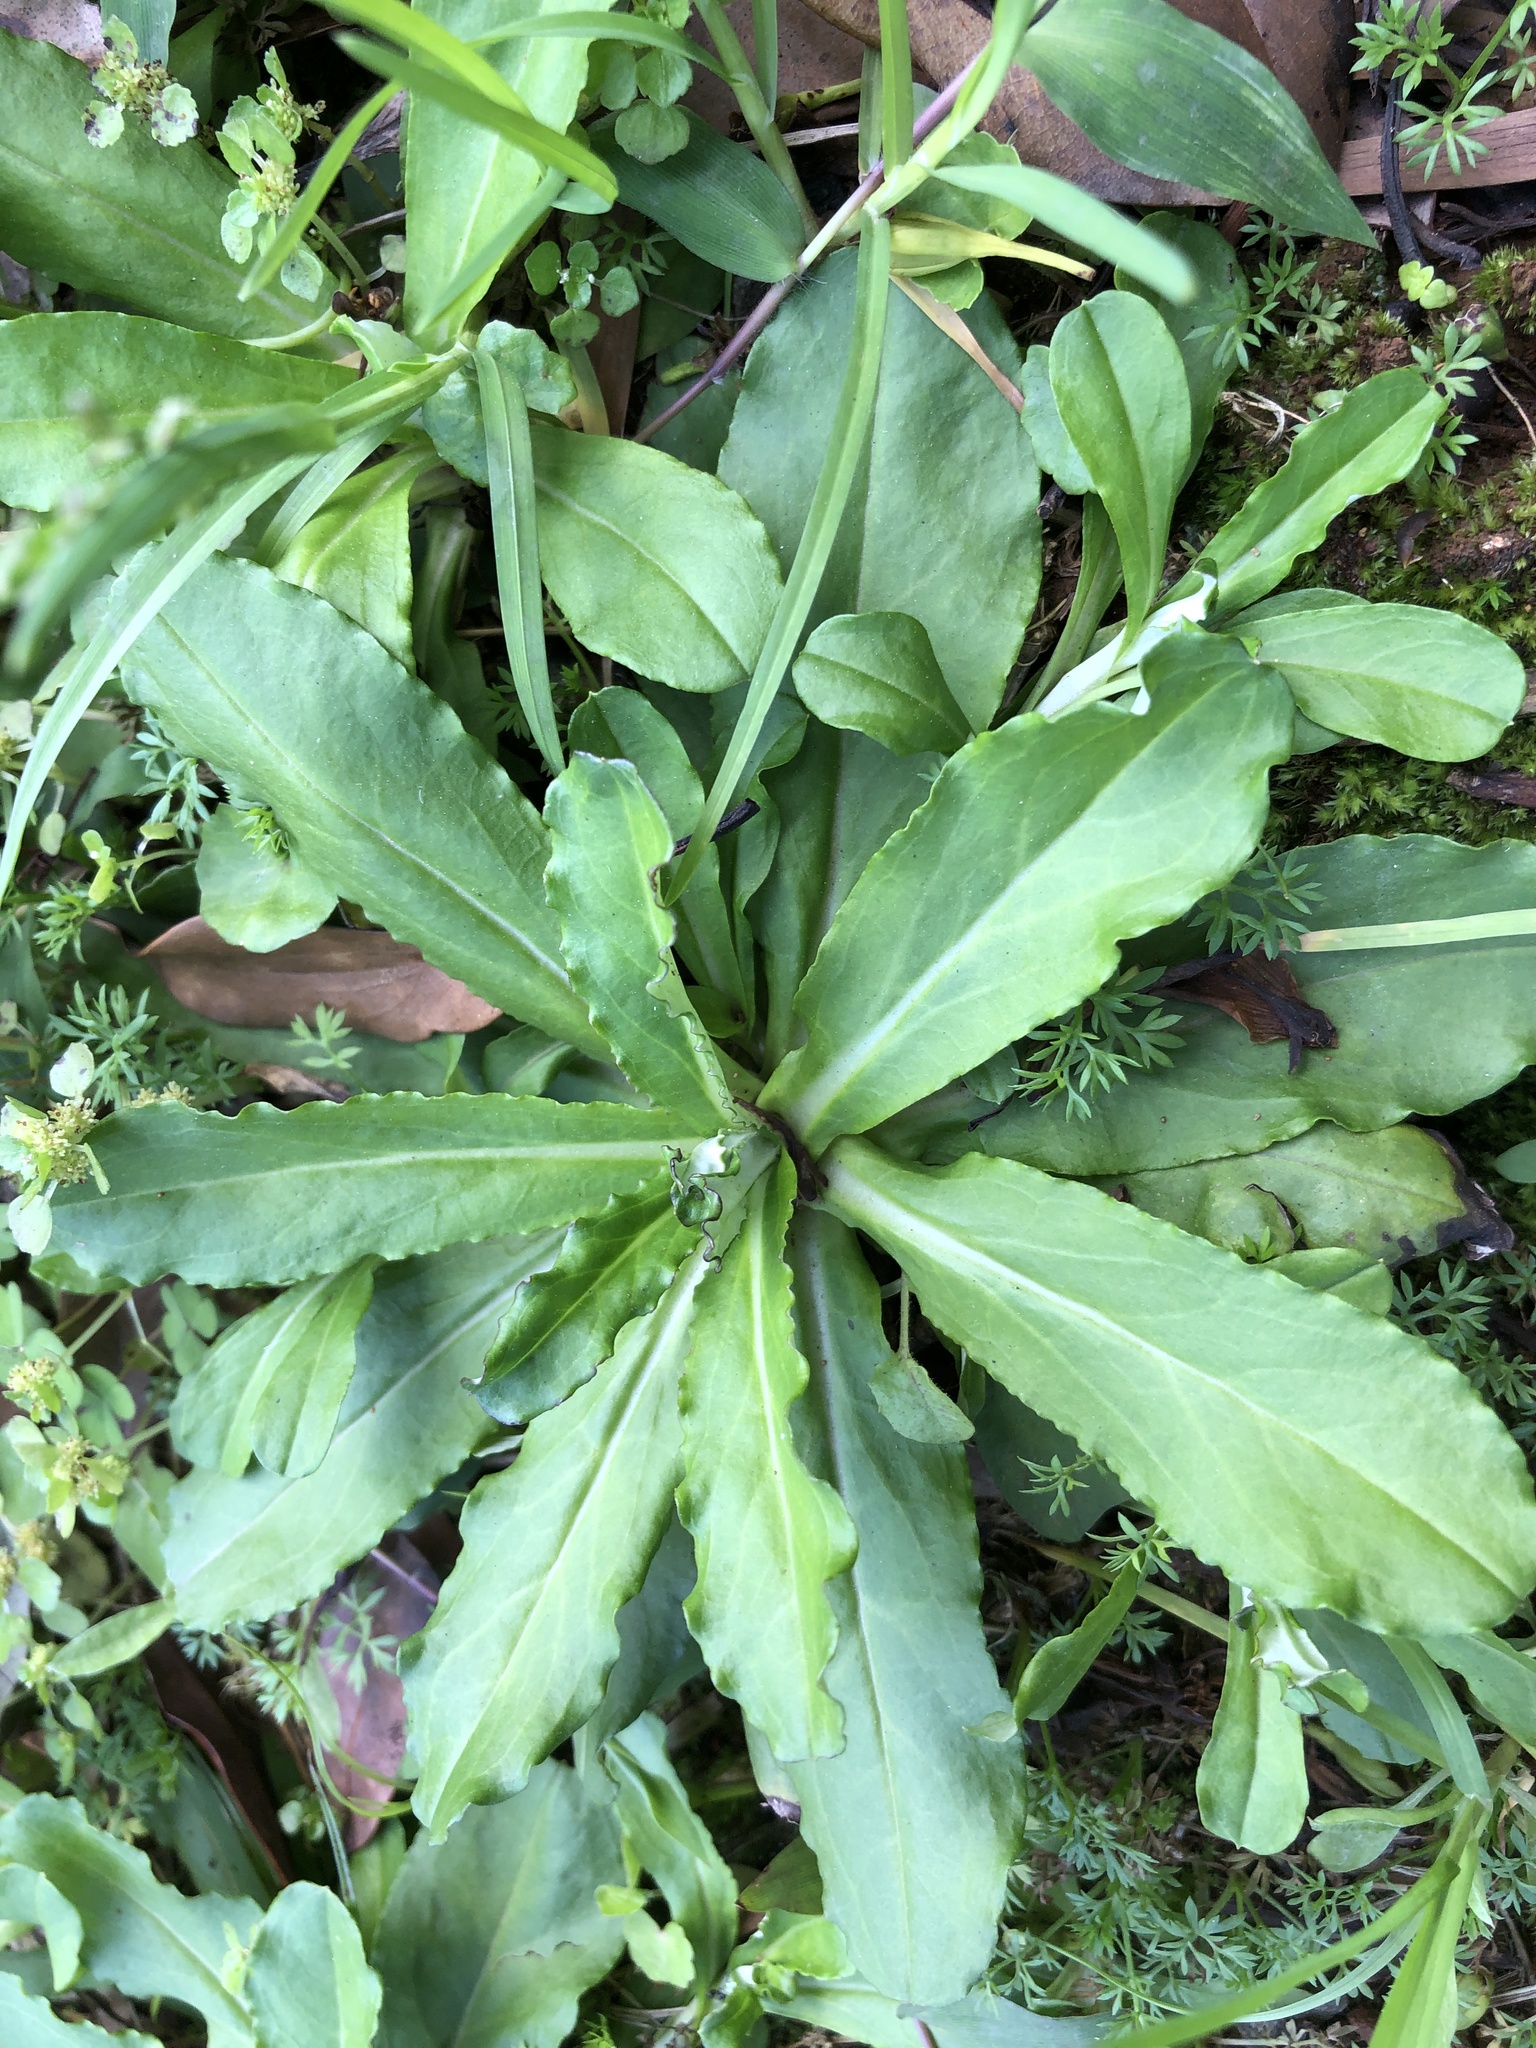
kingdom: Plantae
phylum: Tracheophyta
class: Magnoliopsida
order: Asterales
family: Asteraceae
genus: Gamochaeta
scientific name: Gamochaeta americana
